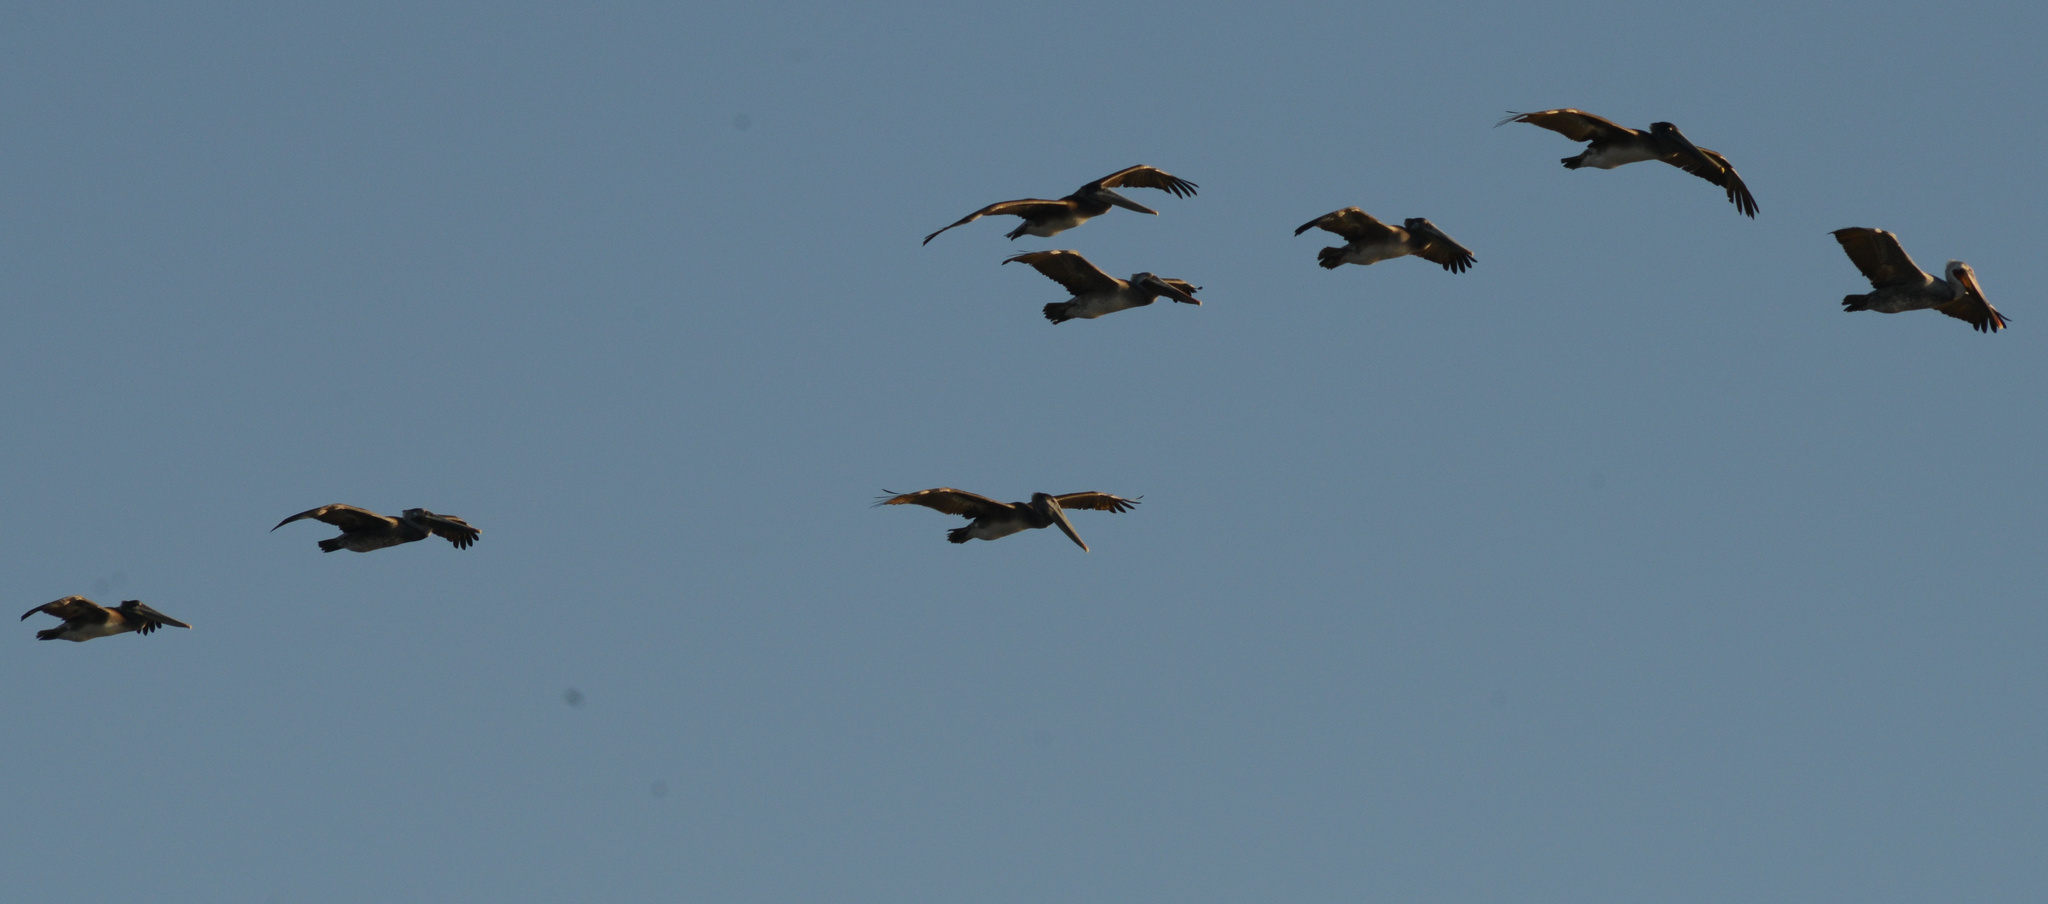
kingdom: Animalia
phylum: Chordata
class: Aves
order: Pelecaniformes
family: Pelecanidae
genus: Pelecanus
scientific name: Pelecanus occidentalis
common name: Brown pelican
